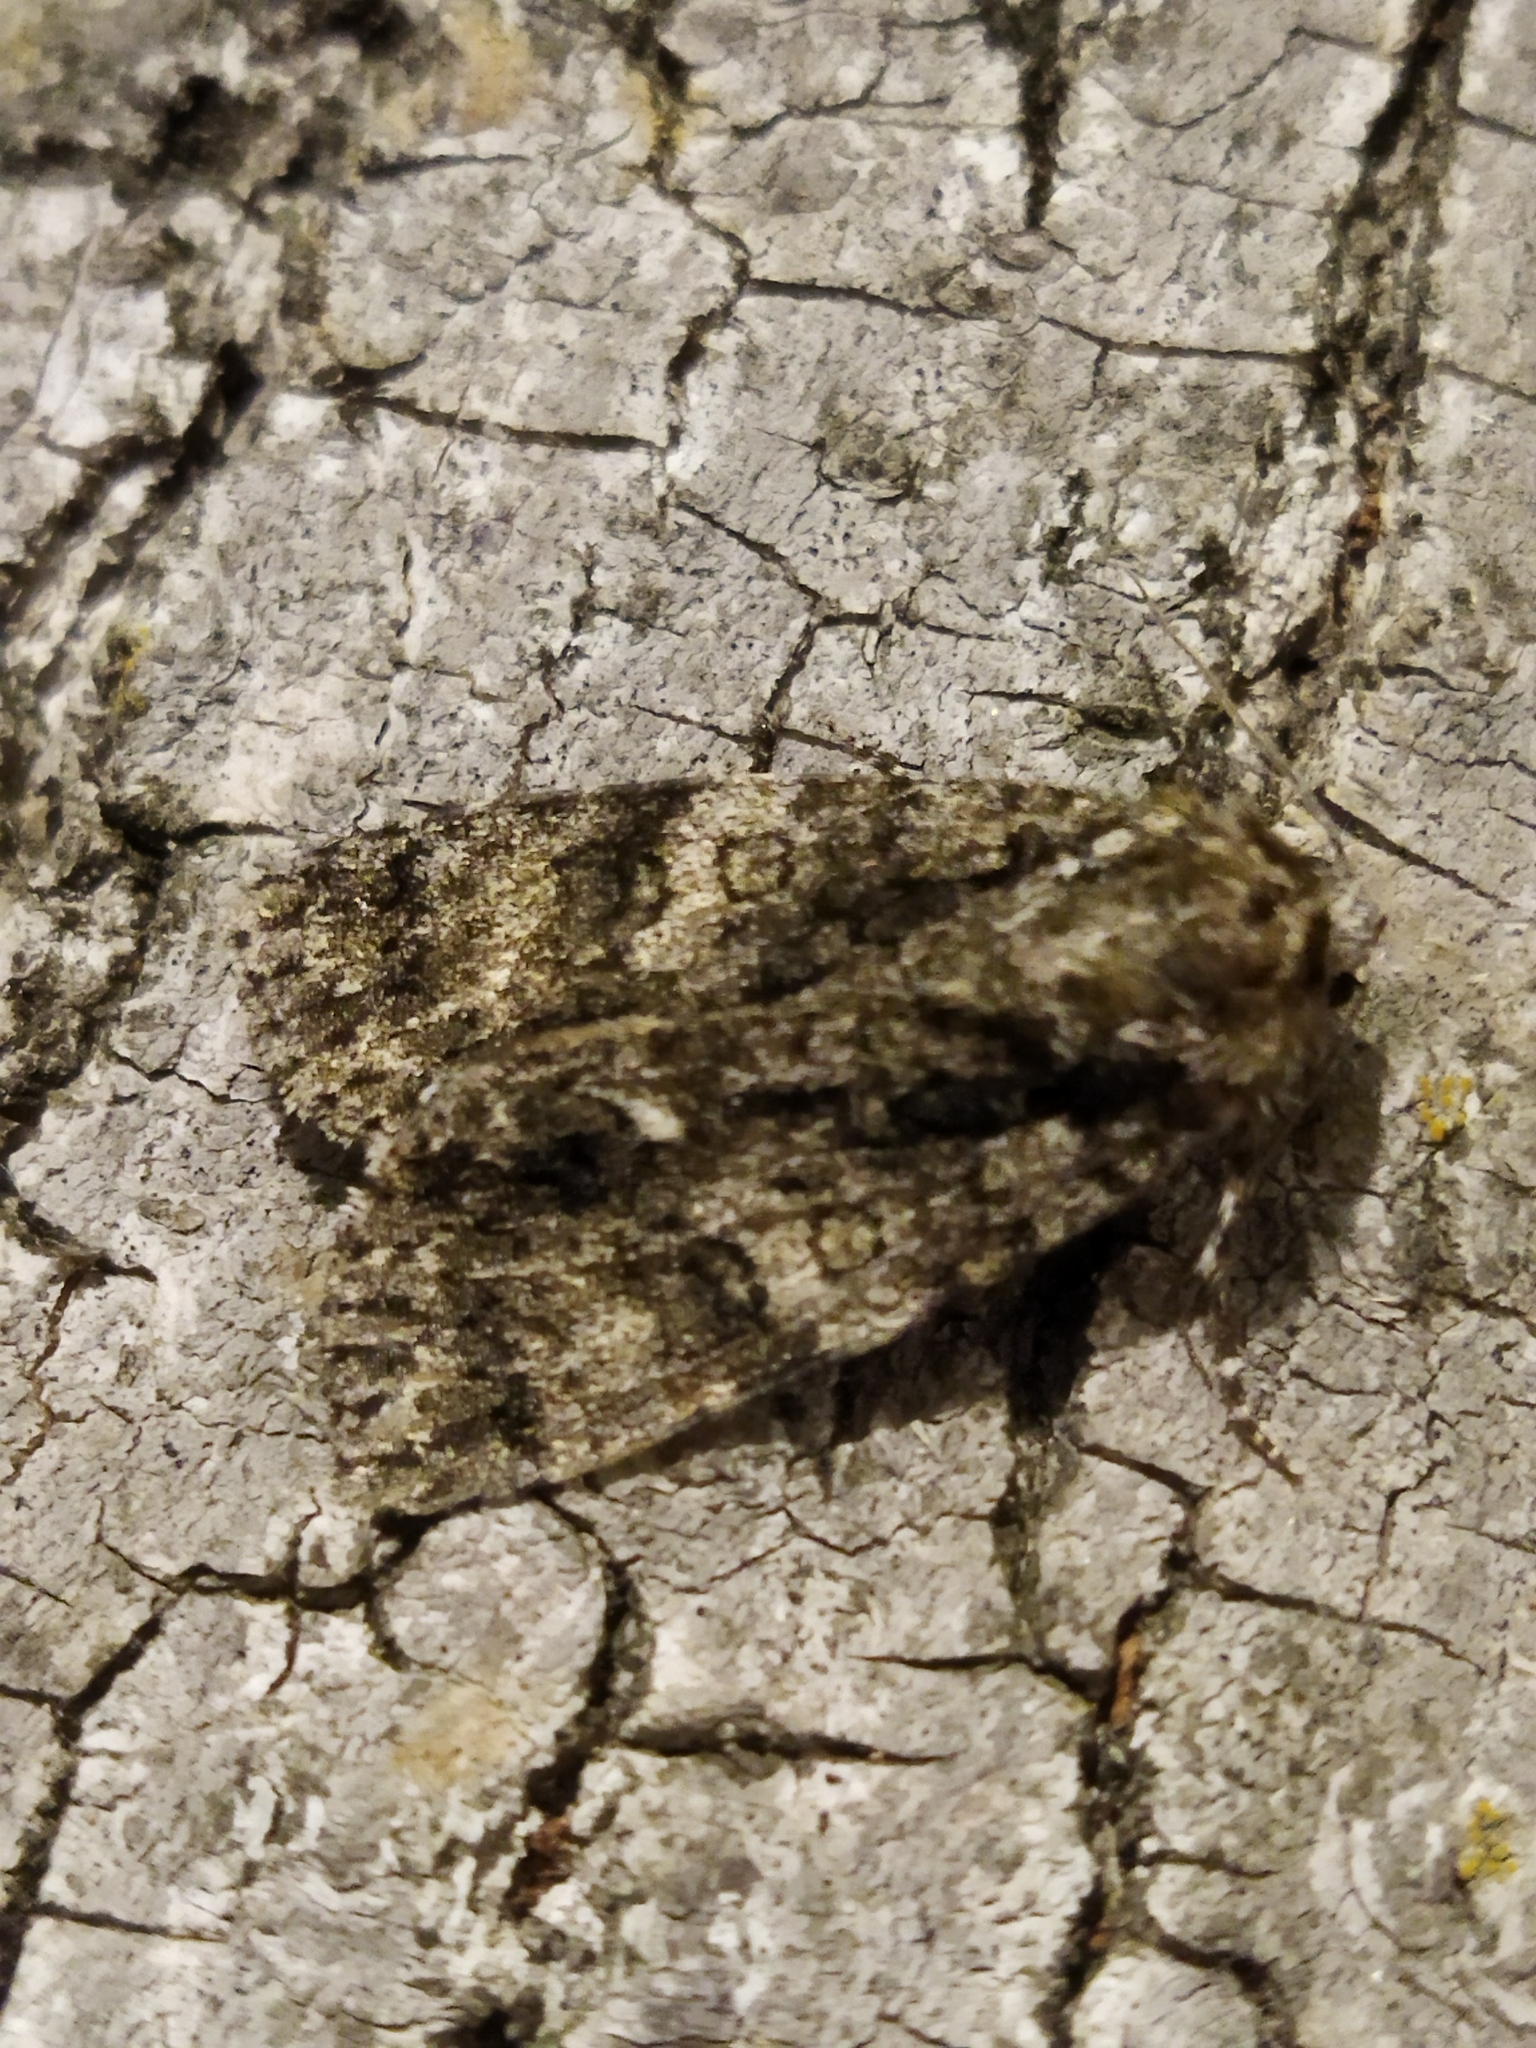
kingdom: Animalia
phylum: Arthropoda
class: Insecta
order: Lepidoptera
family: Noctuidae
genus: Acronicta
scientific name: Acronicta rumicis
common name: Knot grass
